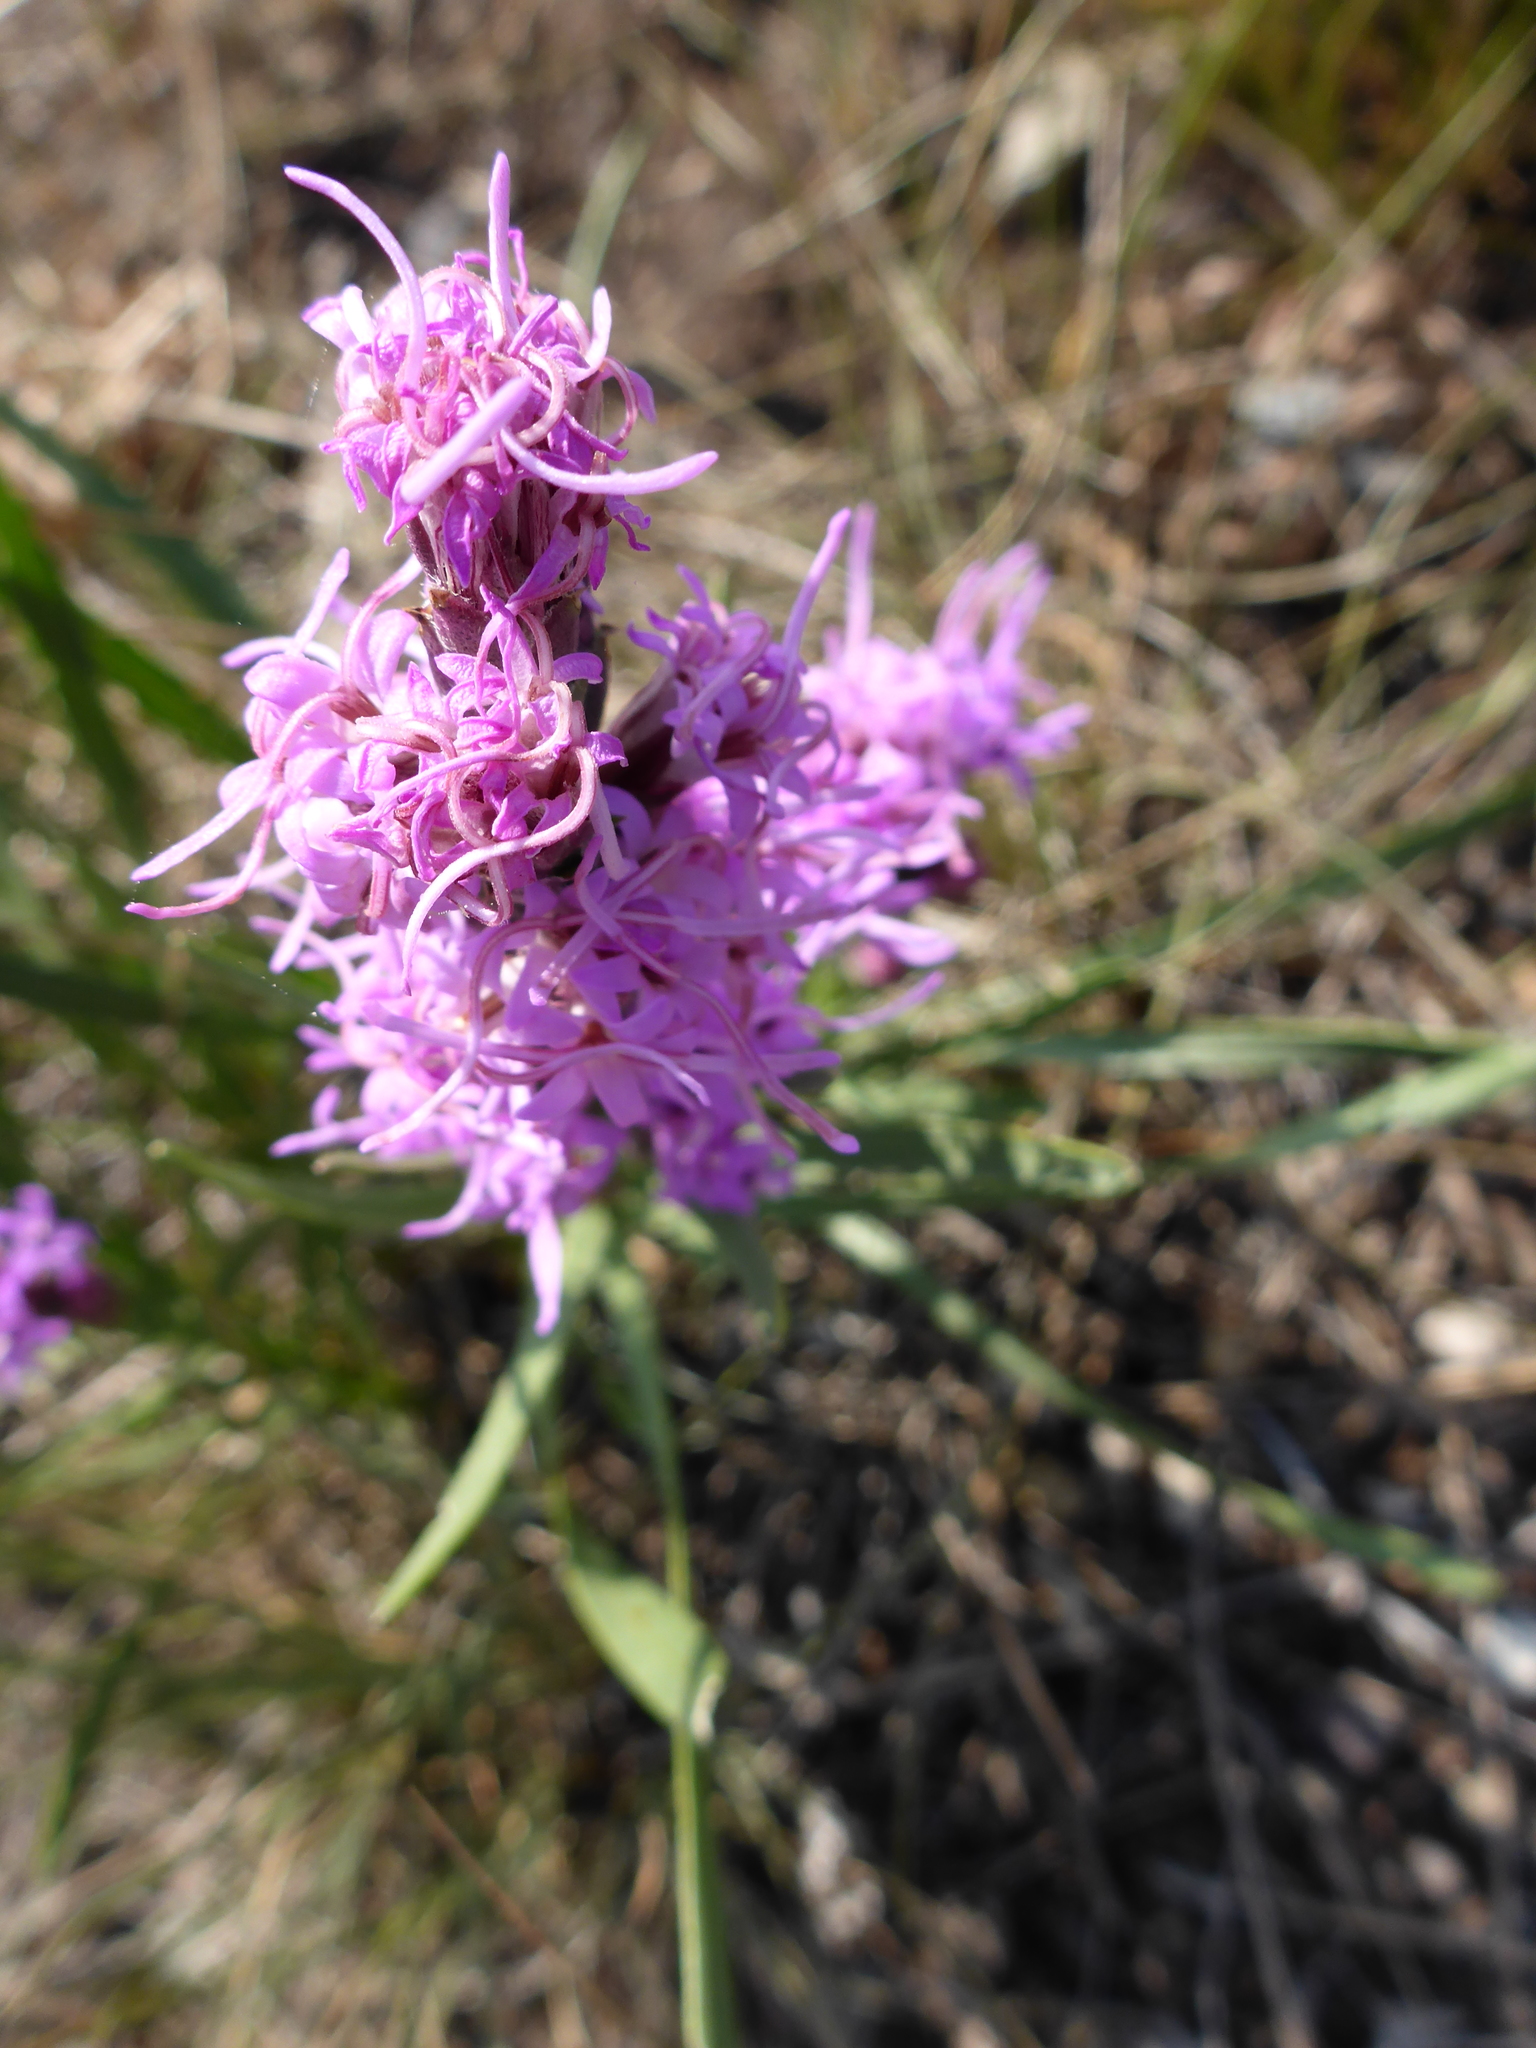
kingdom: Plantae
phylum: Tracheophyta
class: Magnoliopsida
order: Asterales
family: Asteraceae
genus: Liatris
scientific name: Liatris punctata
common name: Dotted gayfeather
